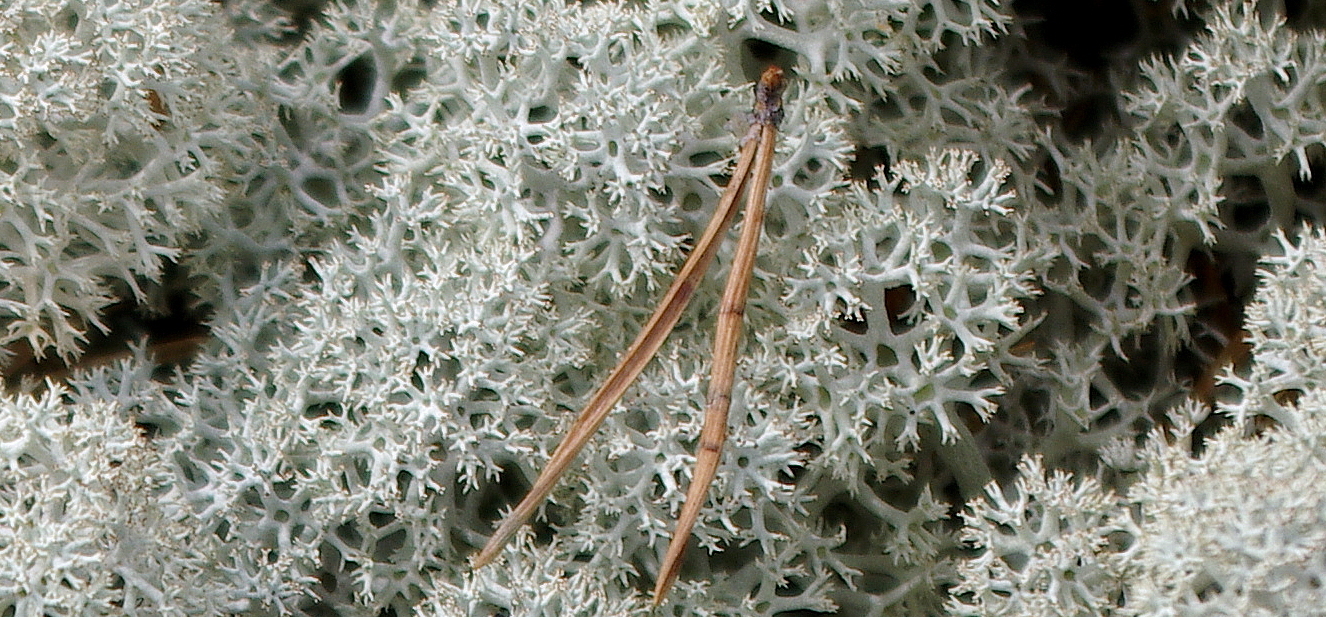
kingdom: Fungi
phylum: Ascomycota
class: Lecanoromycetes
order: Lecanorales
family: Cladoniaceae
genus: Cladonia
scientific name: Cladonia stellaris
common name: Star-tipped reindeer lichen
